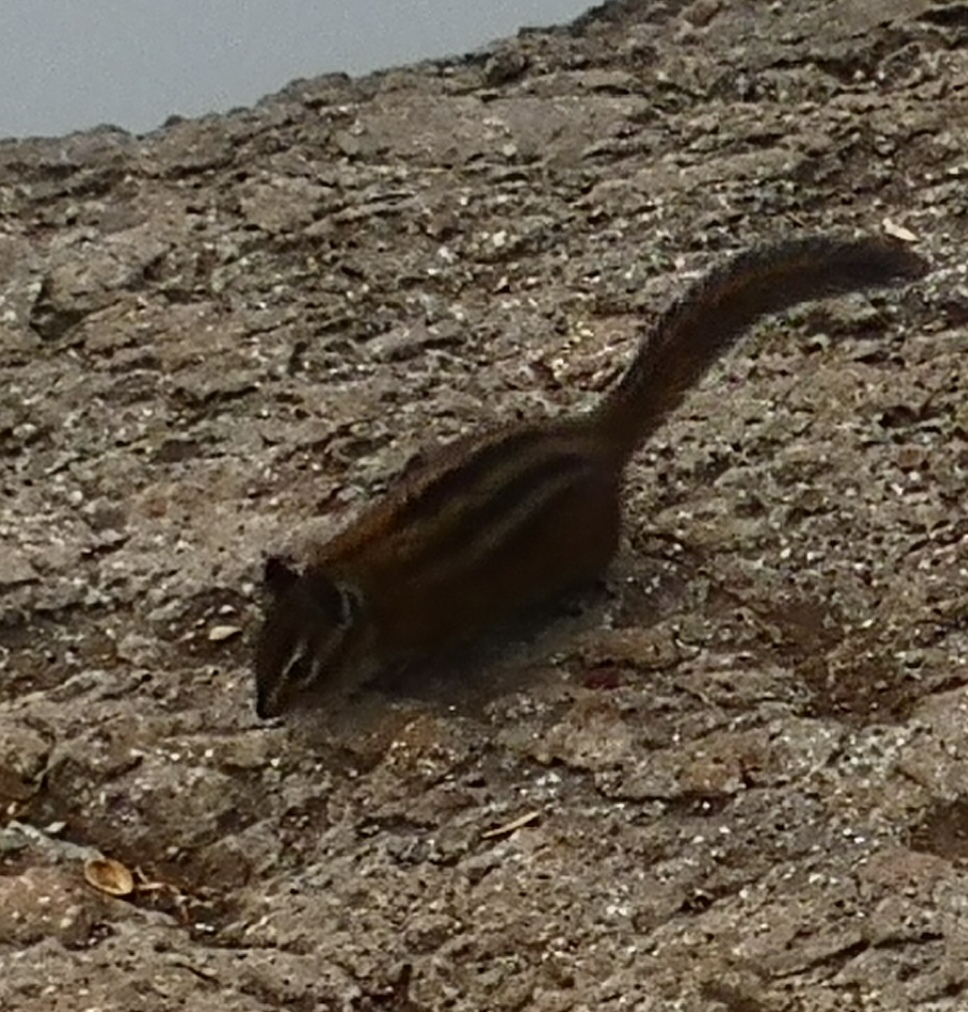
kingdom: Animalia
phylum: Chordata
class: Mammalia
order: Rodentia
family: Sciuridae
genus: Tamias
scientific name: Tamias townsendii
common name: Townsend's chipmunk
